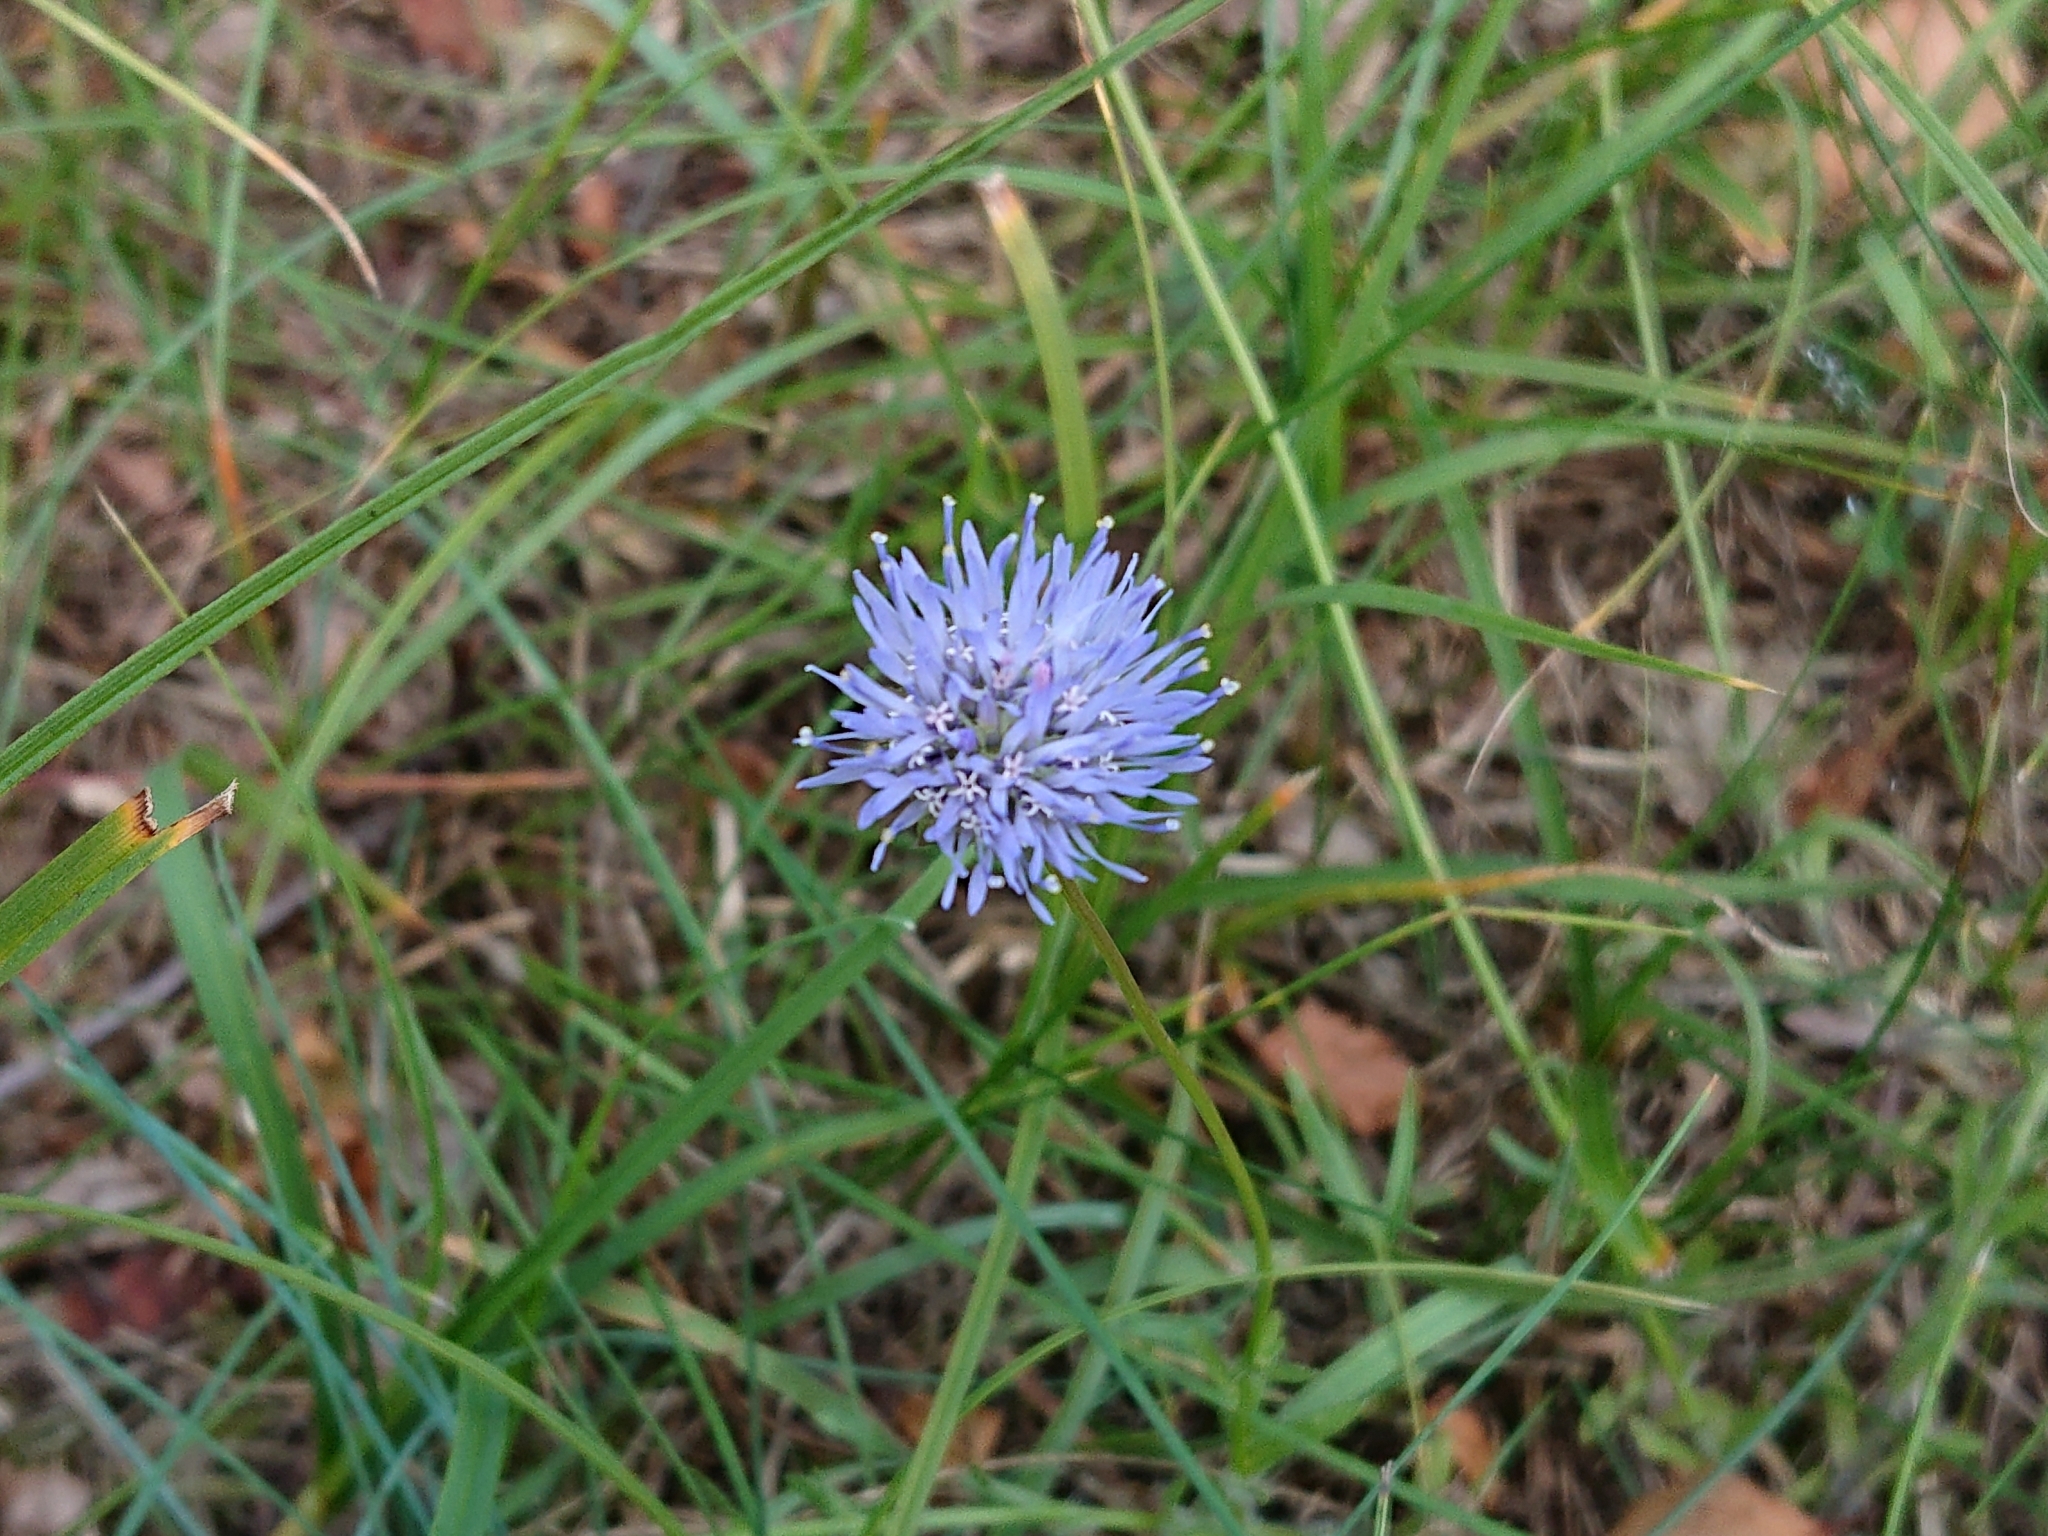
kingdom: Plantae
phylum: Tracheophyta
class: Magnoliopsida
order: Asterales
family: Campanulaceae
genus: Jasione
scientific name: Jasione montana
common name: Sheep's-bit
